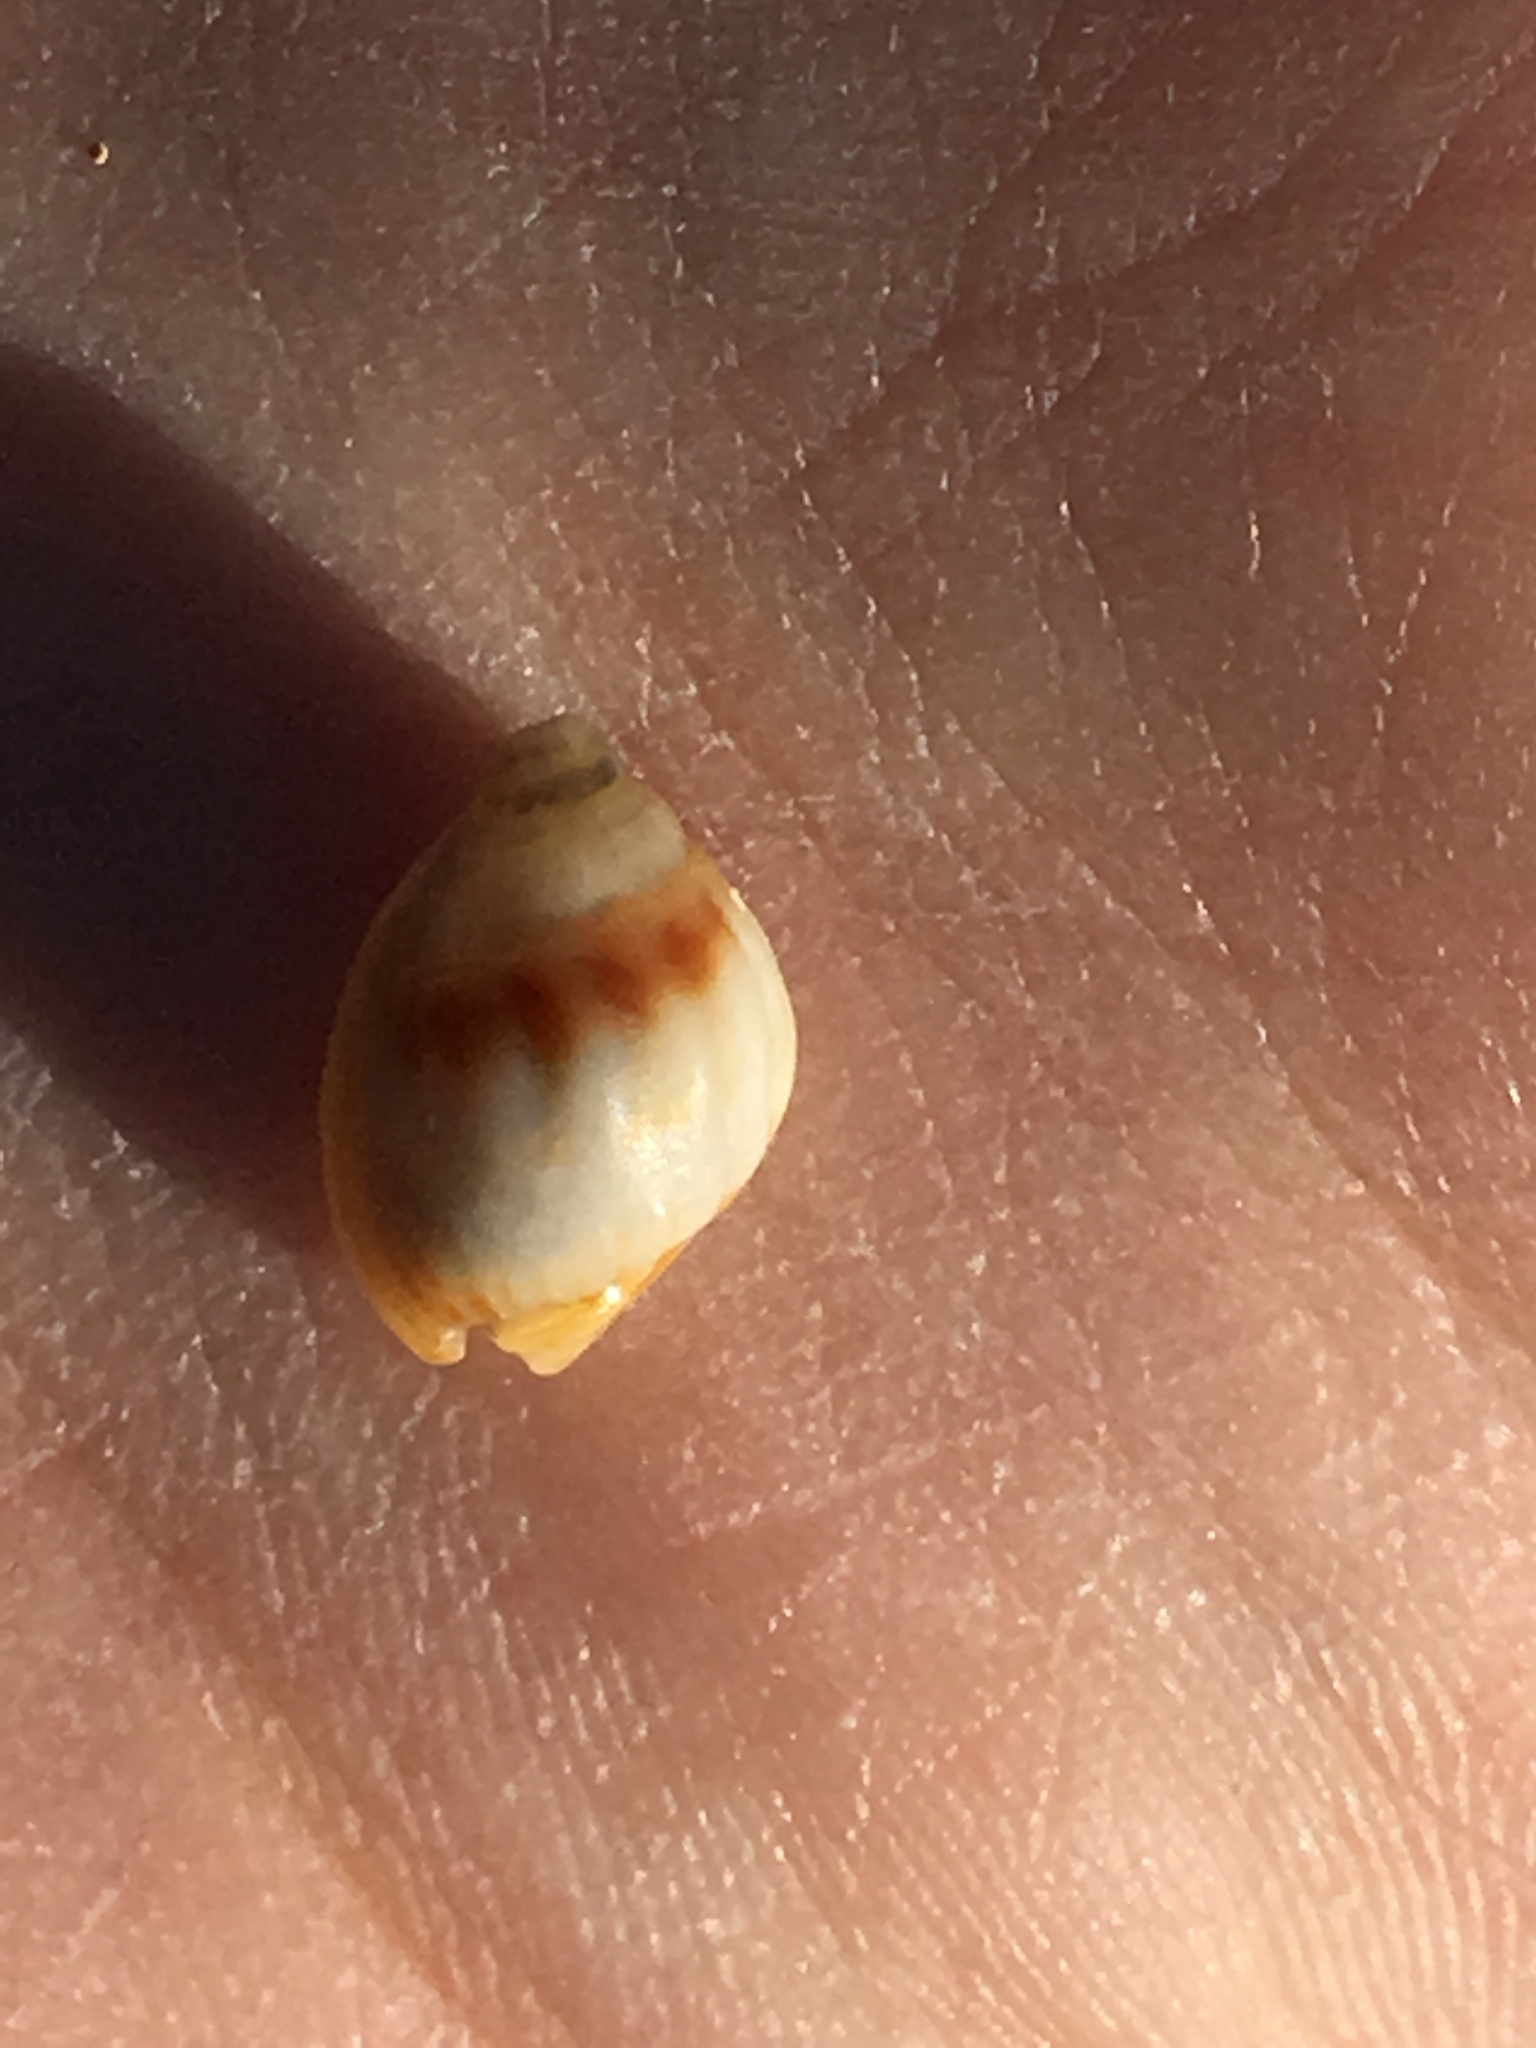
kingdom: Animalia
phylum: Mollusca
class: Gastropoda
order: Neogastropoda
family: Nassariidae
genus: Nassarius
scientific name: Nassarius jonasii
